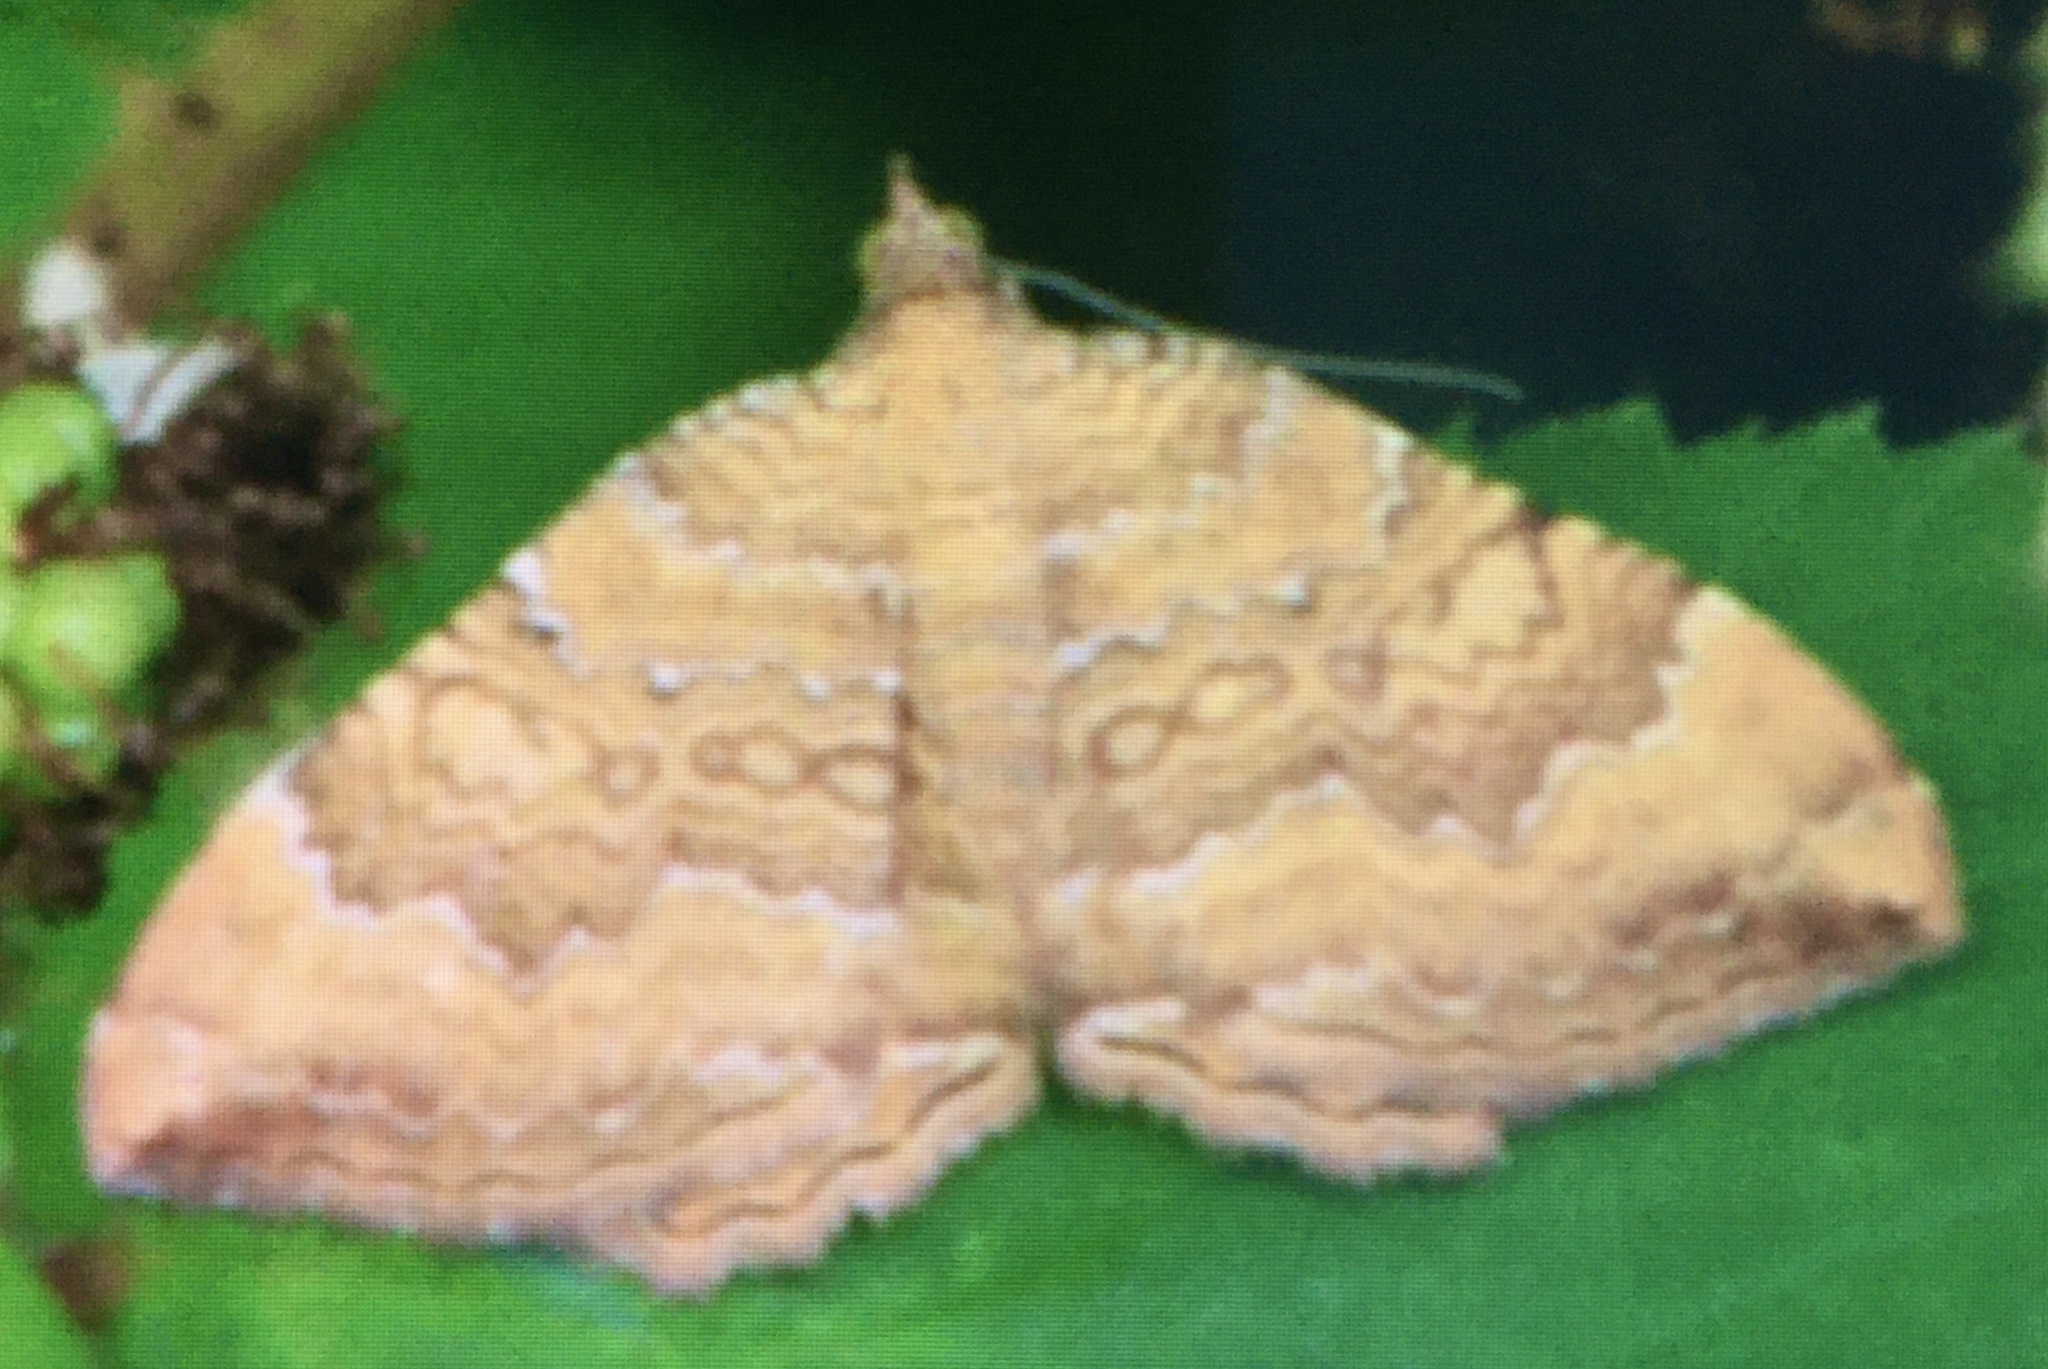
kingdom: Animalia
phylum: Arthropoda
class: Insecta
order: Lepidoptera
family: Geometridae
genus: Camptogramma
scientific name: Camptogramma bilineata
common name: Yellow shell
